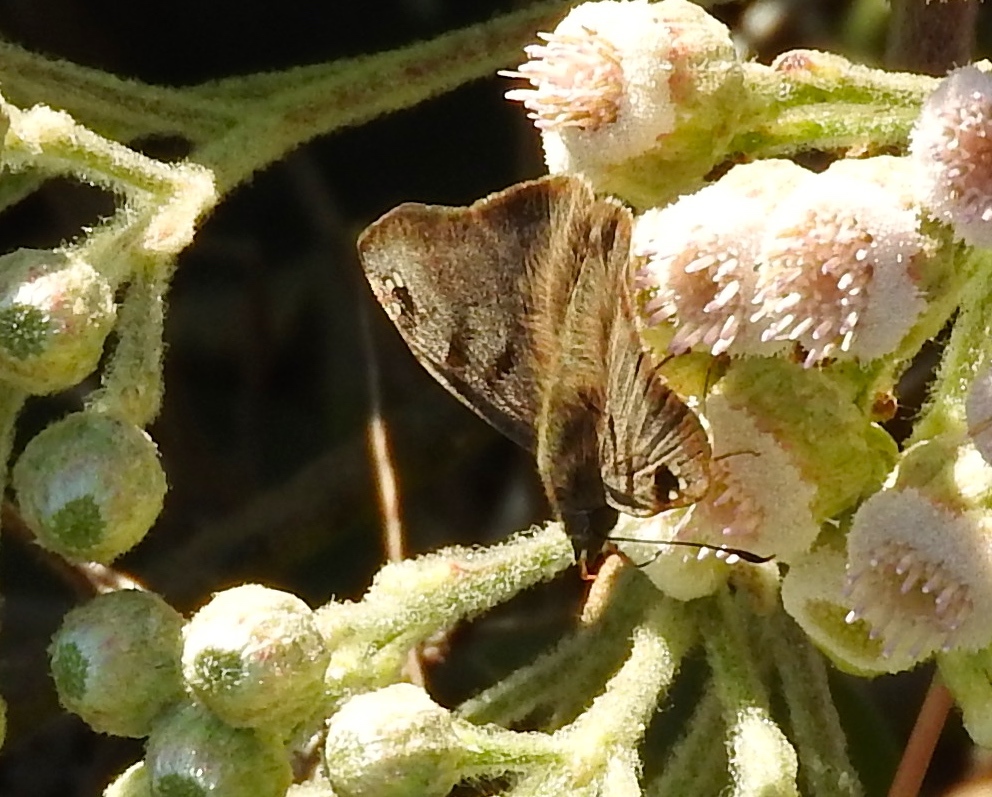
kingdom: Animalia
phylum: Arthropoda
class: Insecta
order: Lepidoptera
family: Hesperiidae
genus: Arteurotia
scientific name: Arteurotia tractipennis
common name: Starred skipper
